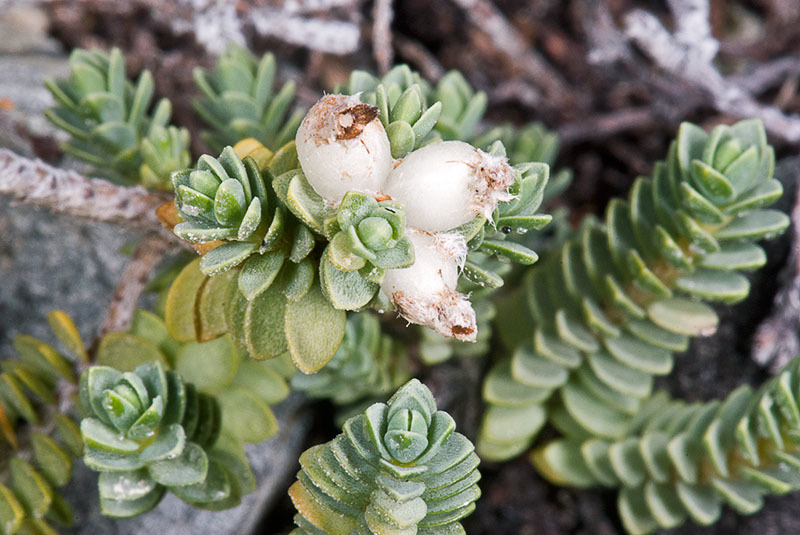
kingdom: Plantae
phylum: Tracheophyta
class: Magnoliopsida
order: Malvales
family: Thymelaeaceae
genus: Pimelea
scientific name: Pimelea urvilleana
